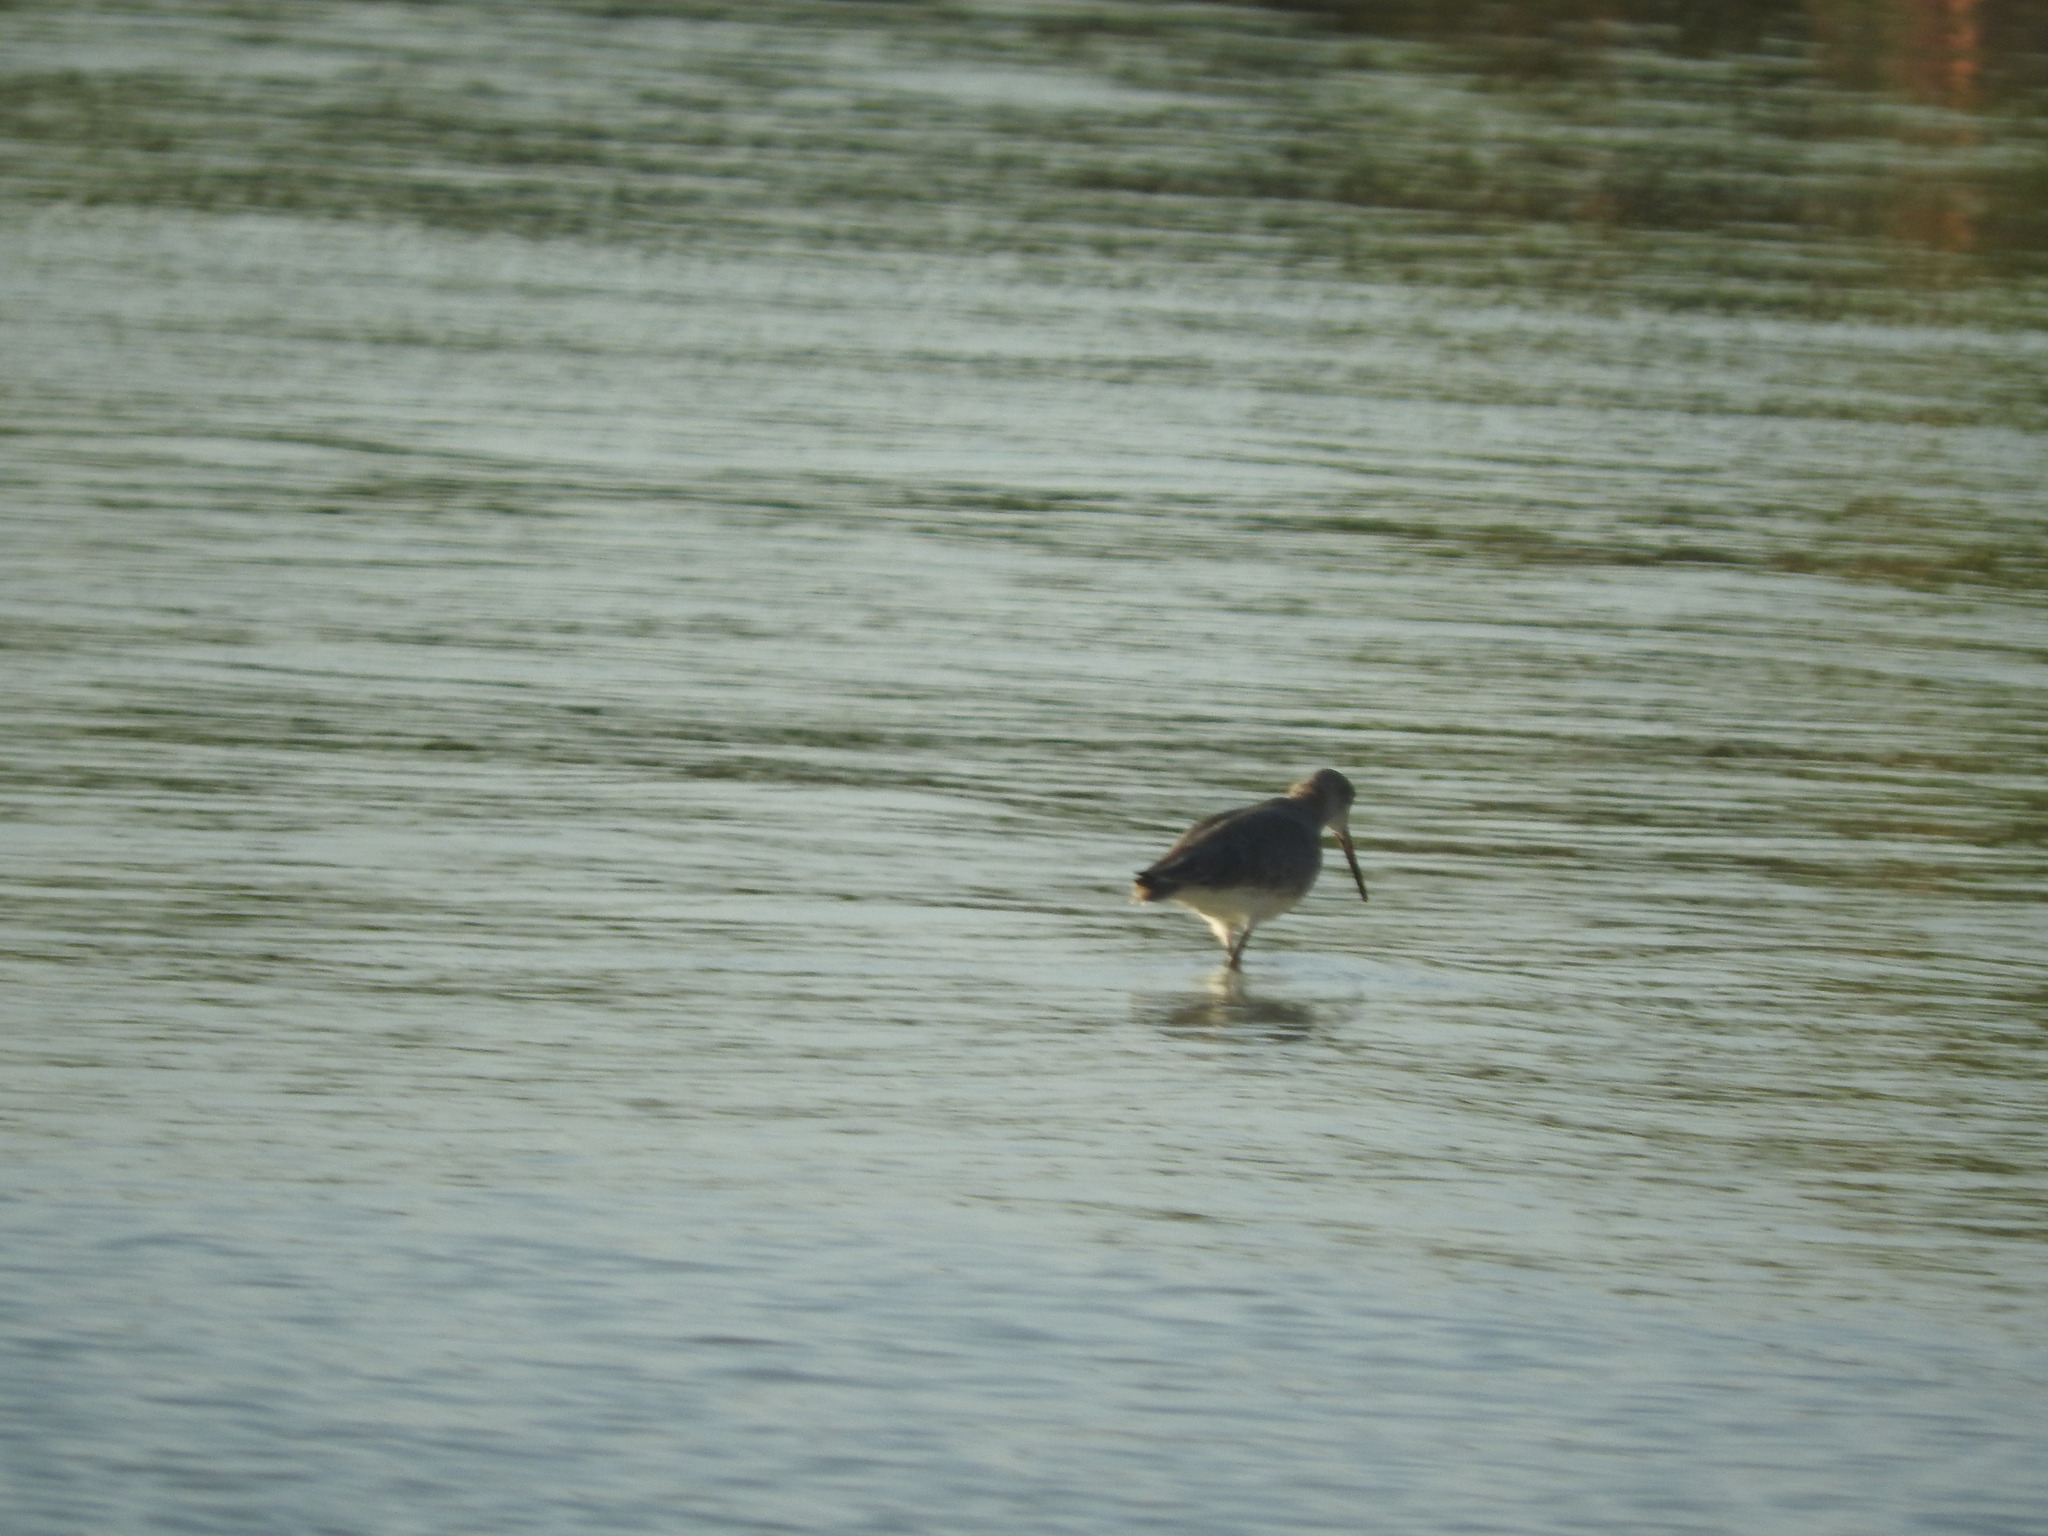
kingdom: Animalia
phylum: Chordata
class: Aves
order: Charadriiformes
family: Scolopacidae
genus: Limnodromus
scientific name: Limnodromus griseus
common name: Short-billed dowitcher
